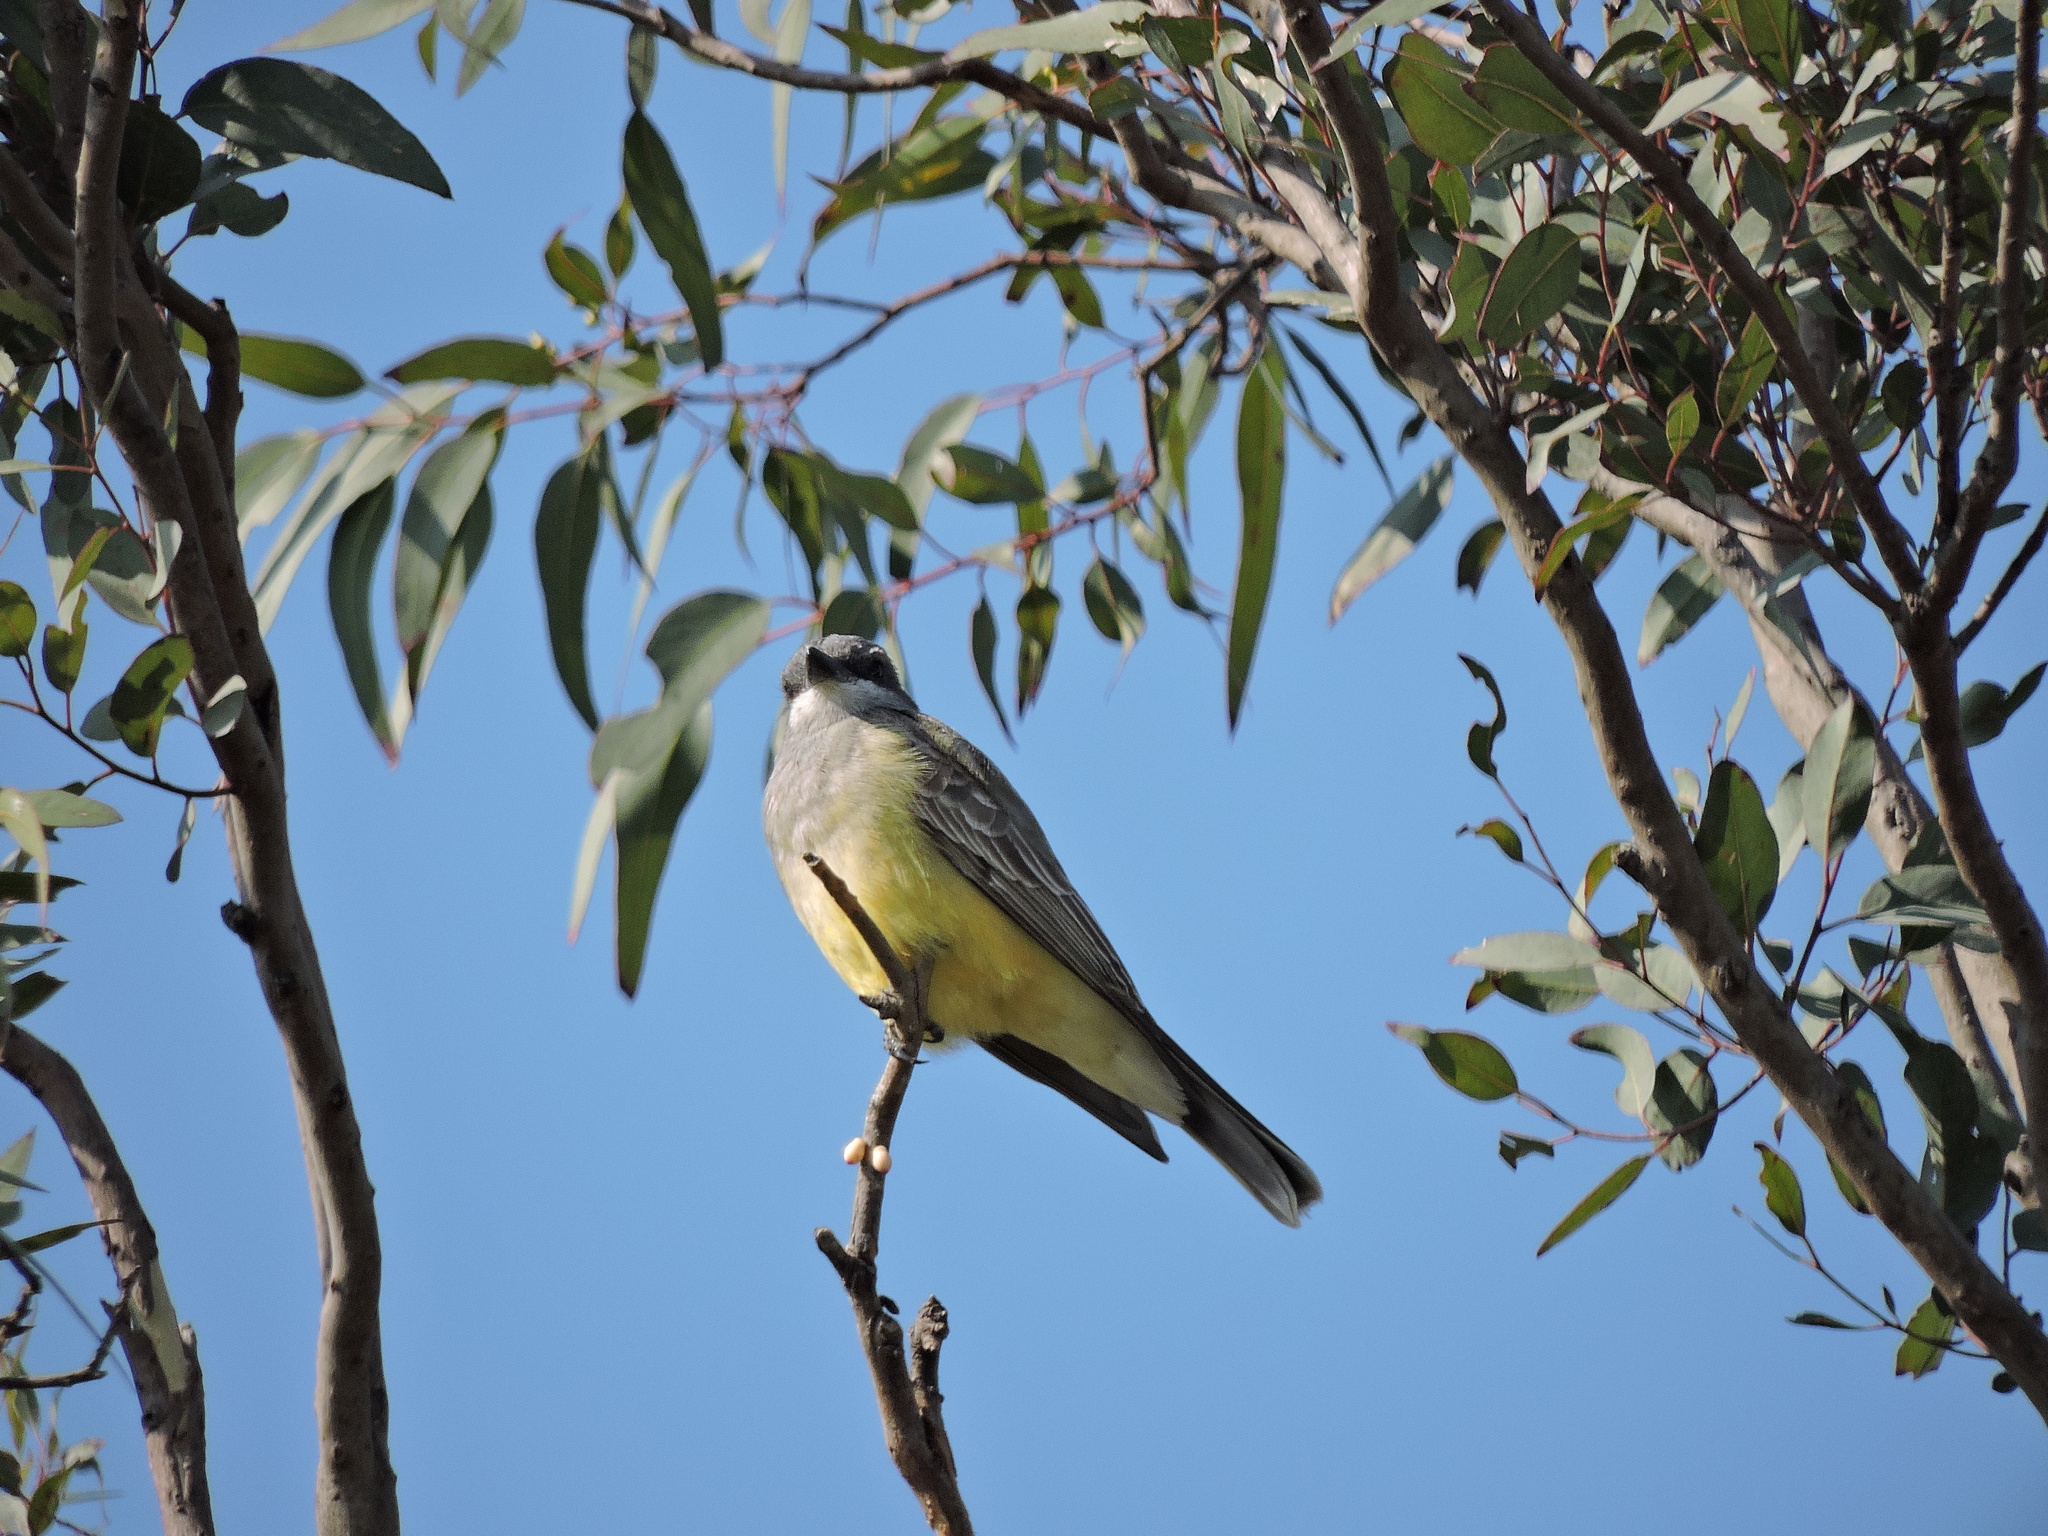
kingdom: Animalia
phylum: Chordata
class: Aves
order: Passeriformes
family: Tyrannidae
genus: Tyrannus
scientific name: Tyrannus vociferans
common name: Cassin's kingbird
